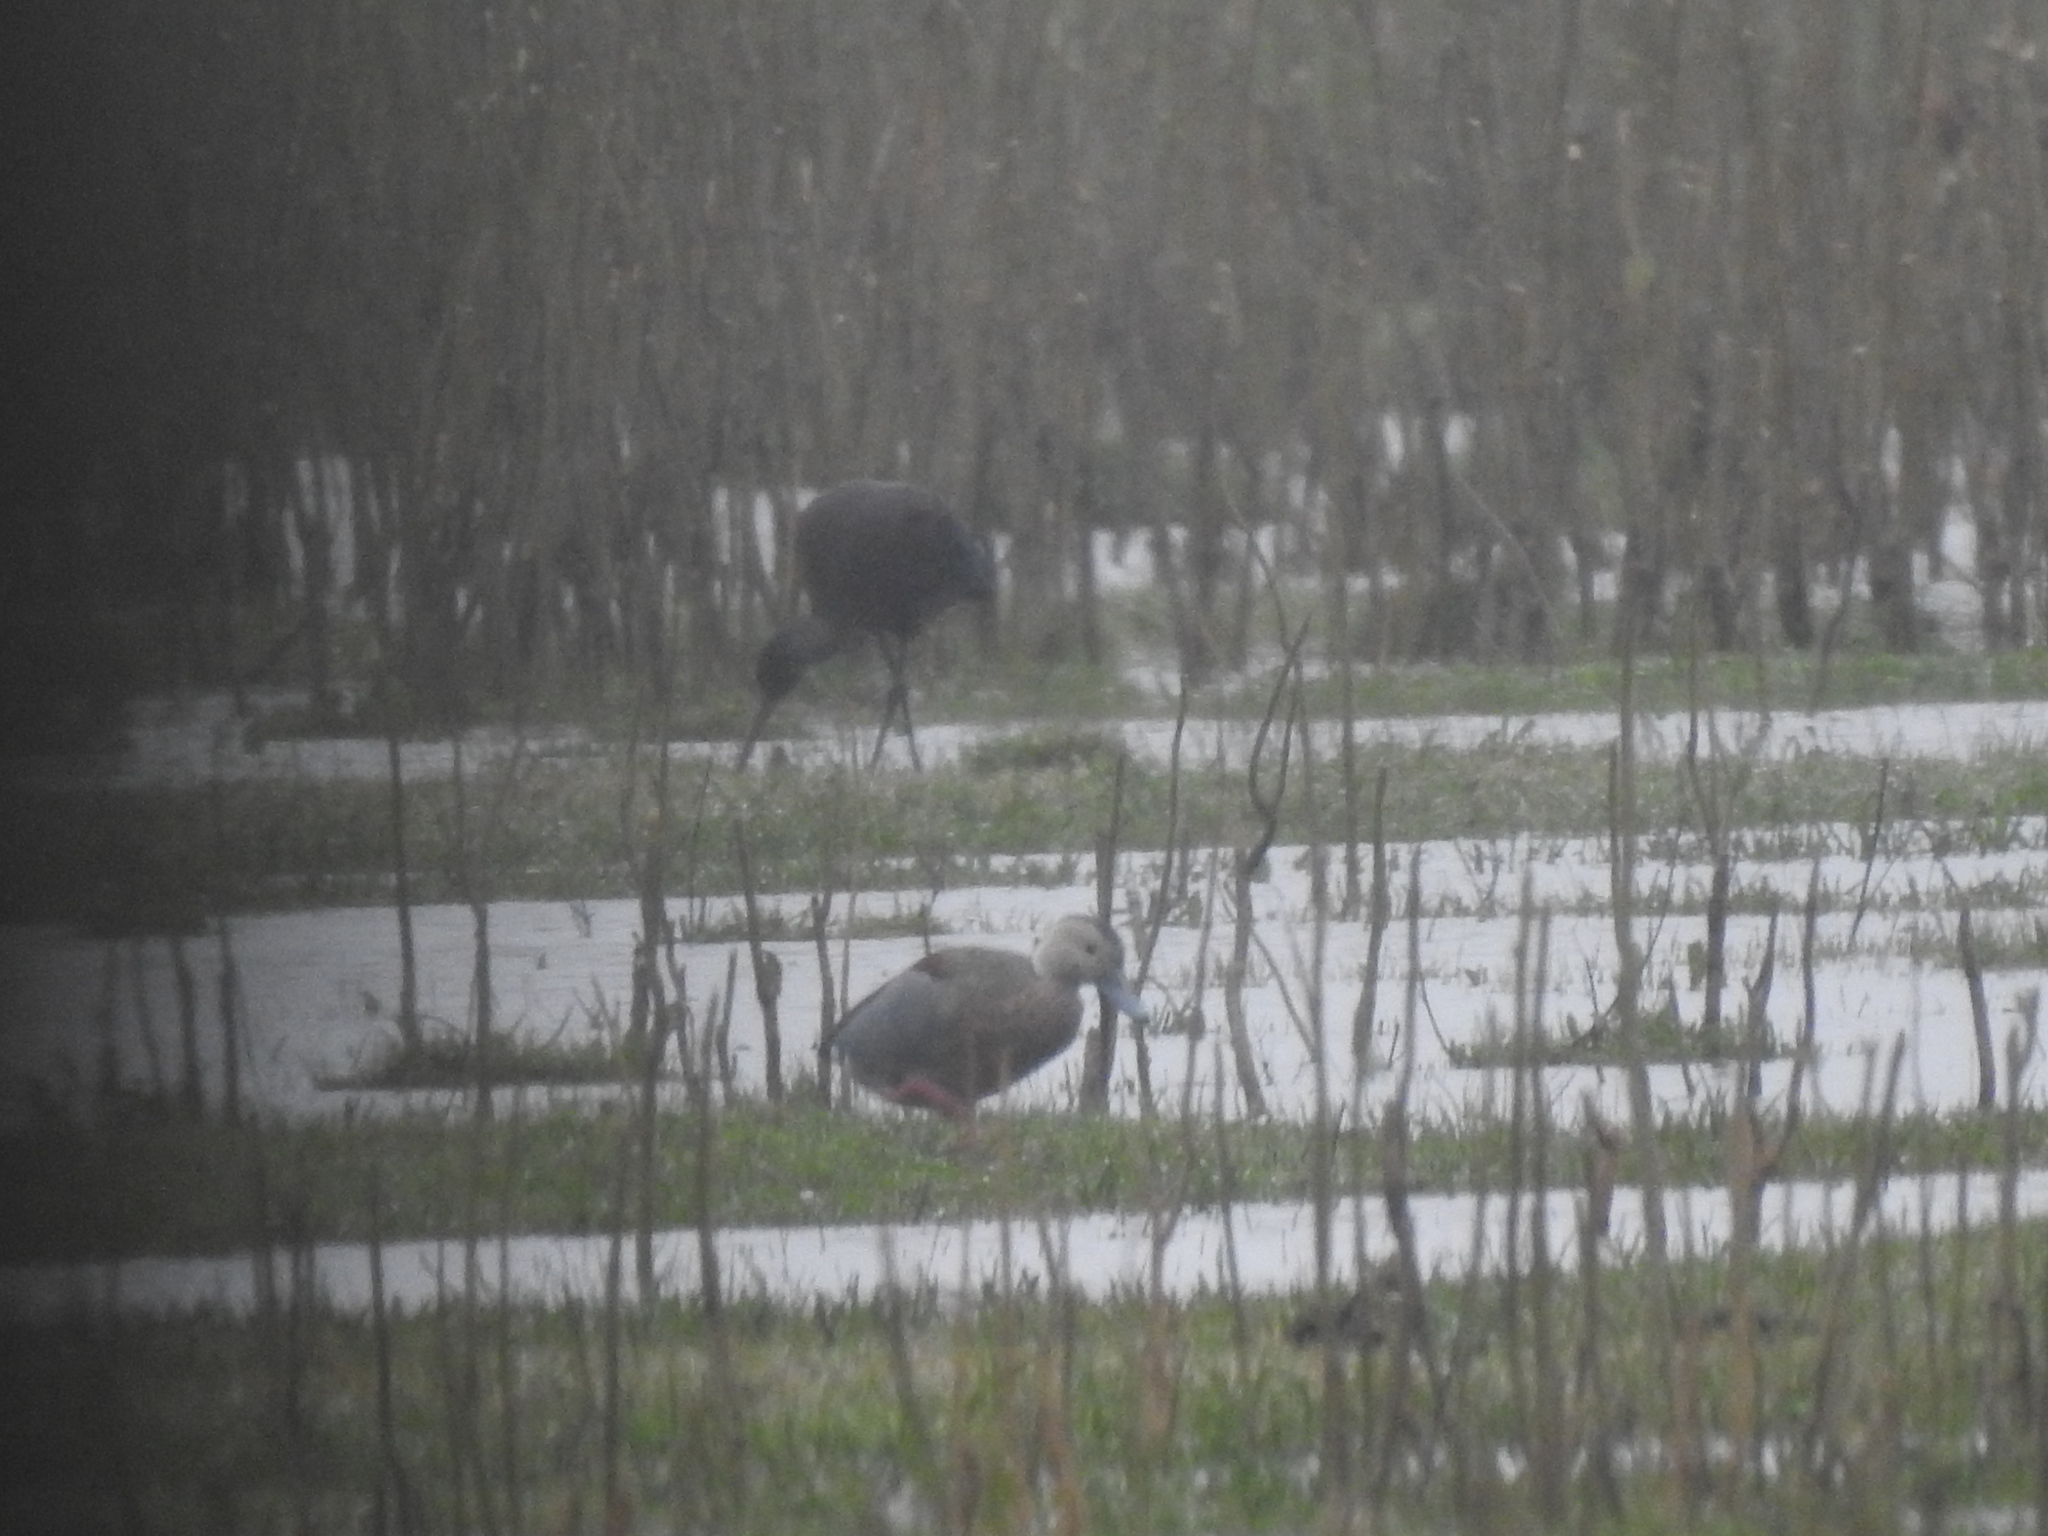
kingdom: Animalia
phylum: Chordata
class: Aves
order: Anseriformes
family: Anatidae
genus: Callonetta
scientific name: Callonetta leucophrys
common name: Ringed teal
